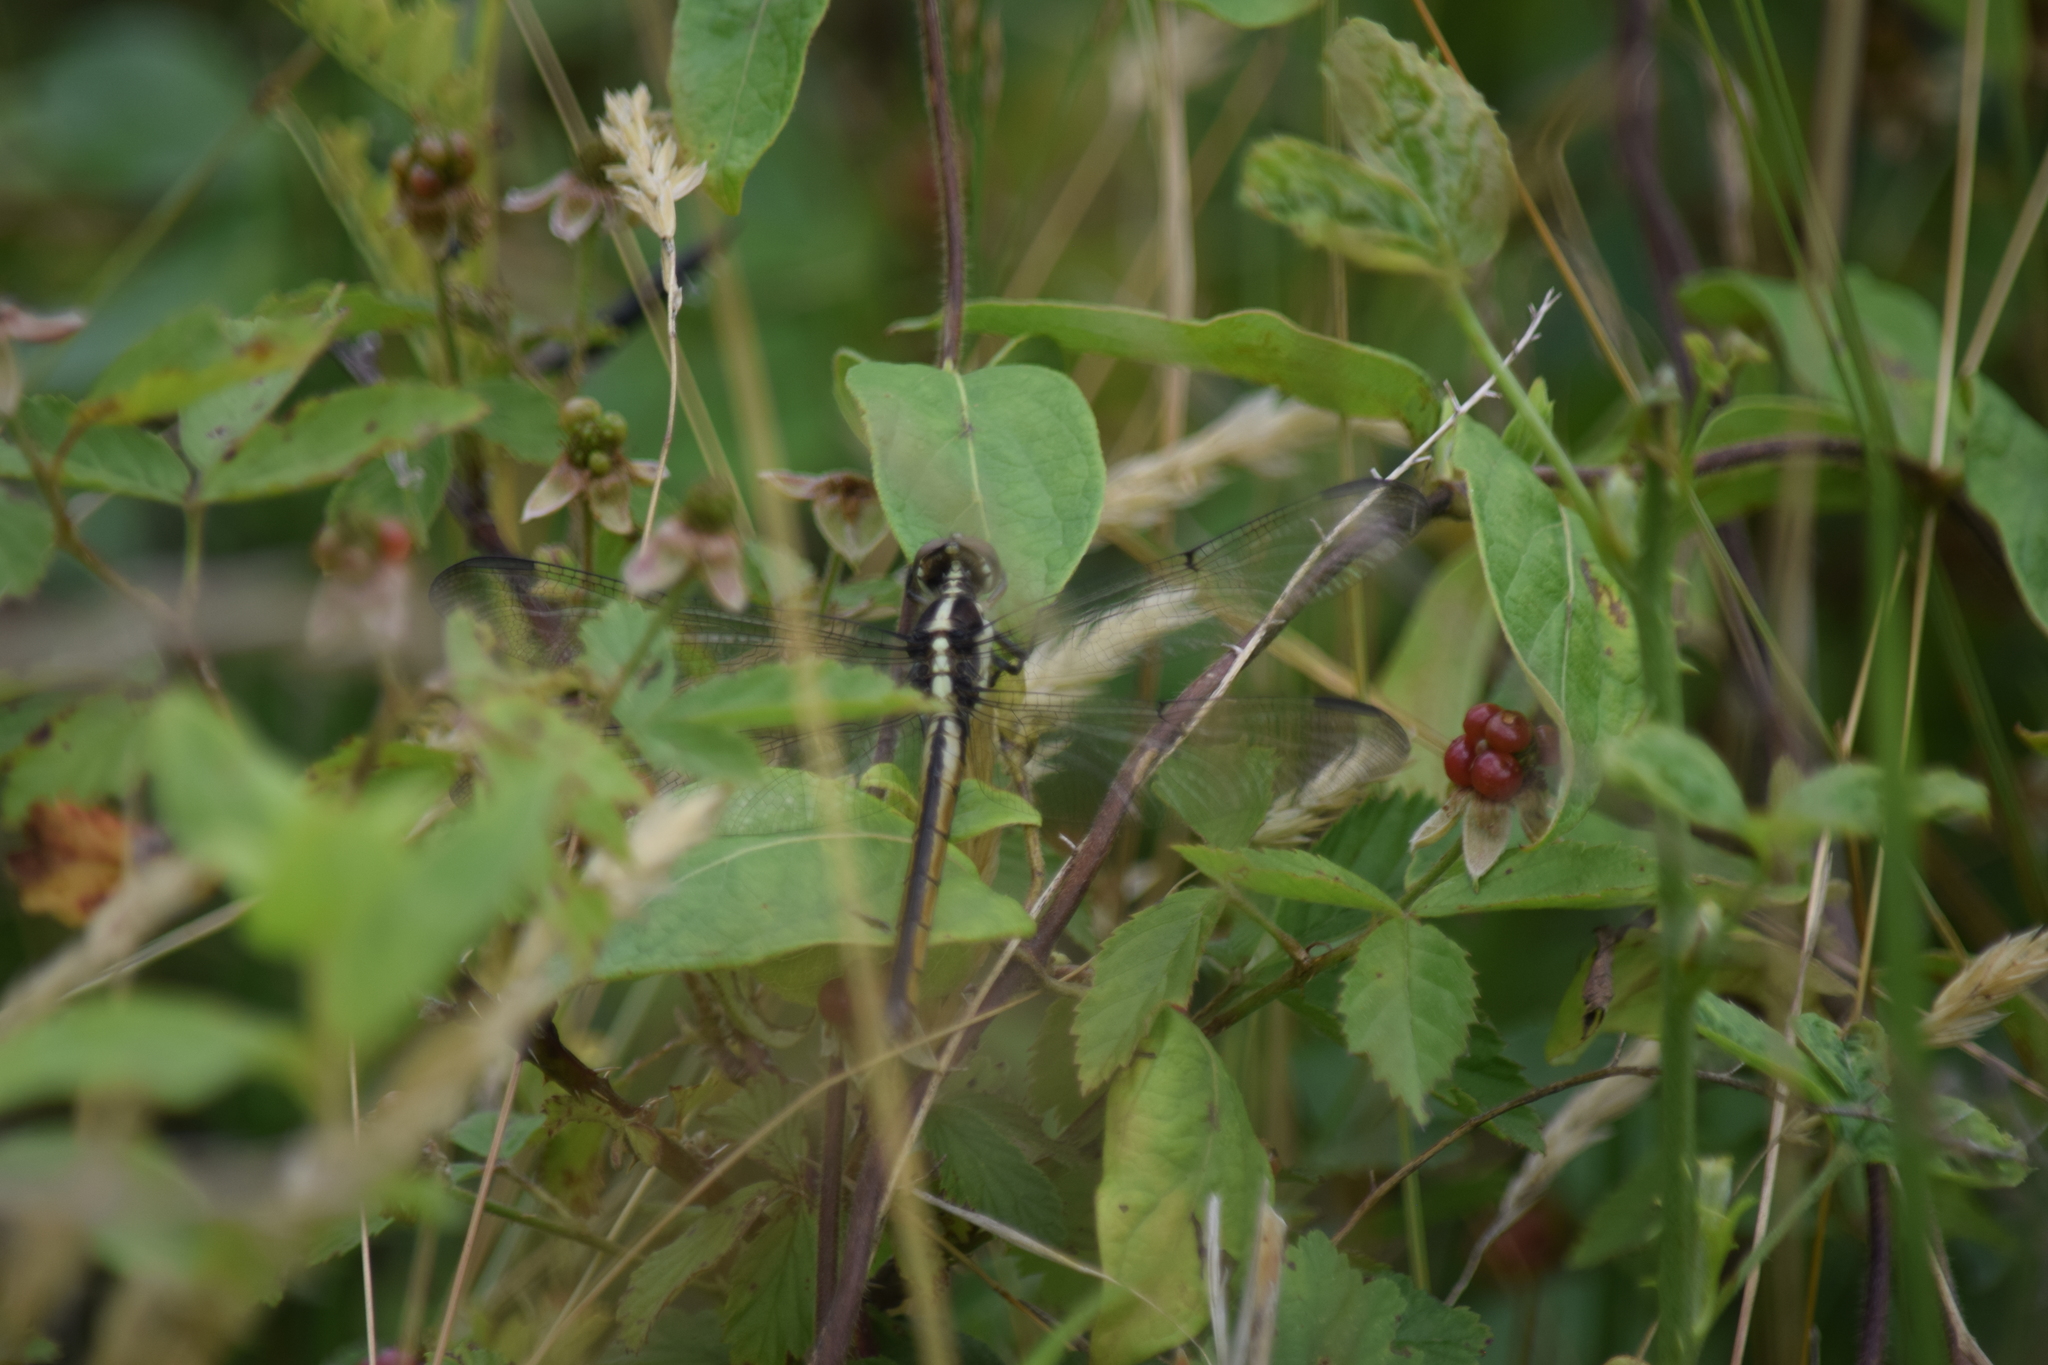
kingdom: Animalia
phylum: Arthropoda
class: Insecta
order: Odonata
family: Libellulidae
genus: Libellula
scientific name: Libellula cyanea
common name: Spangled skimmer
